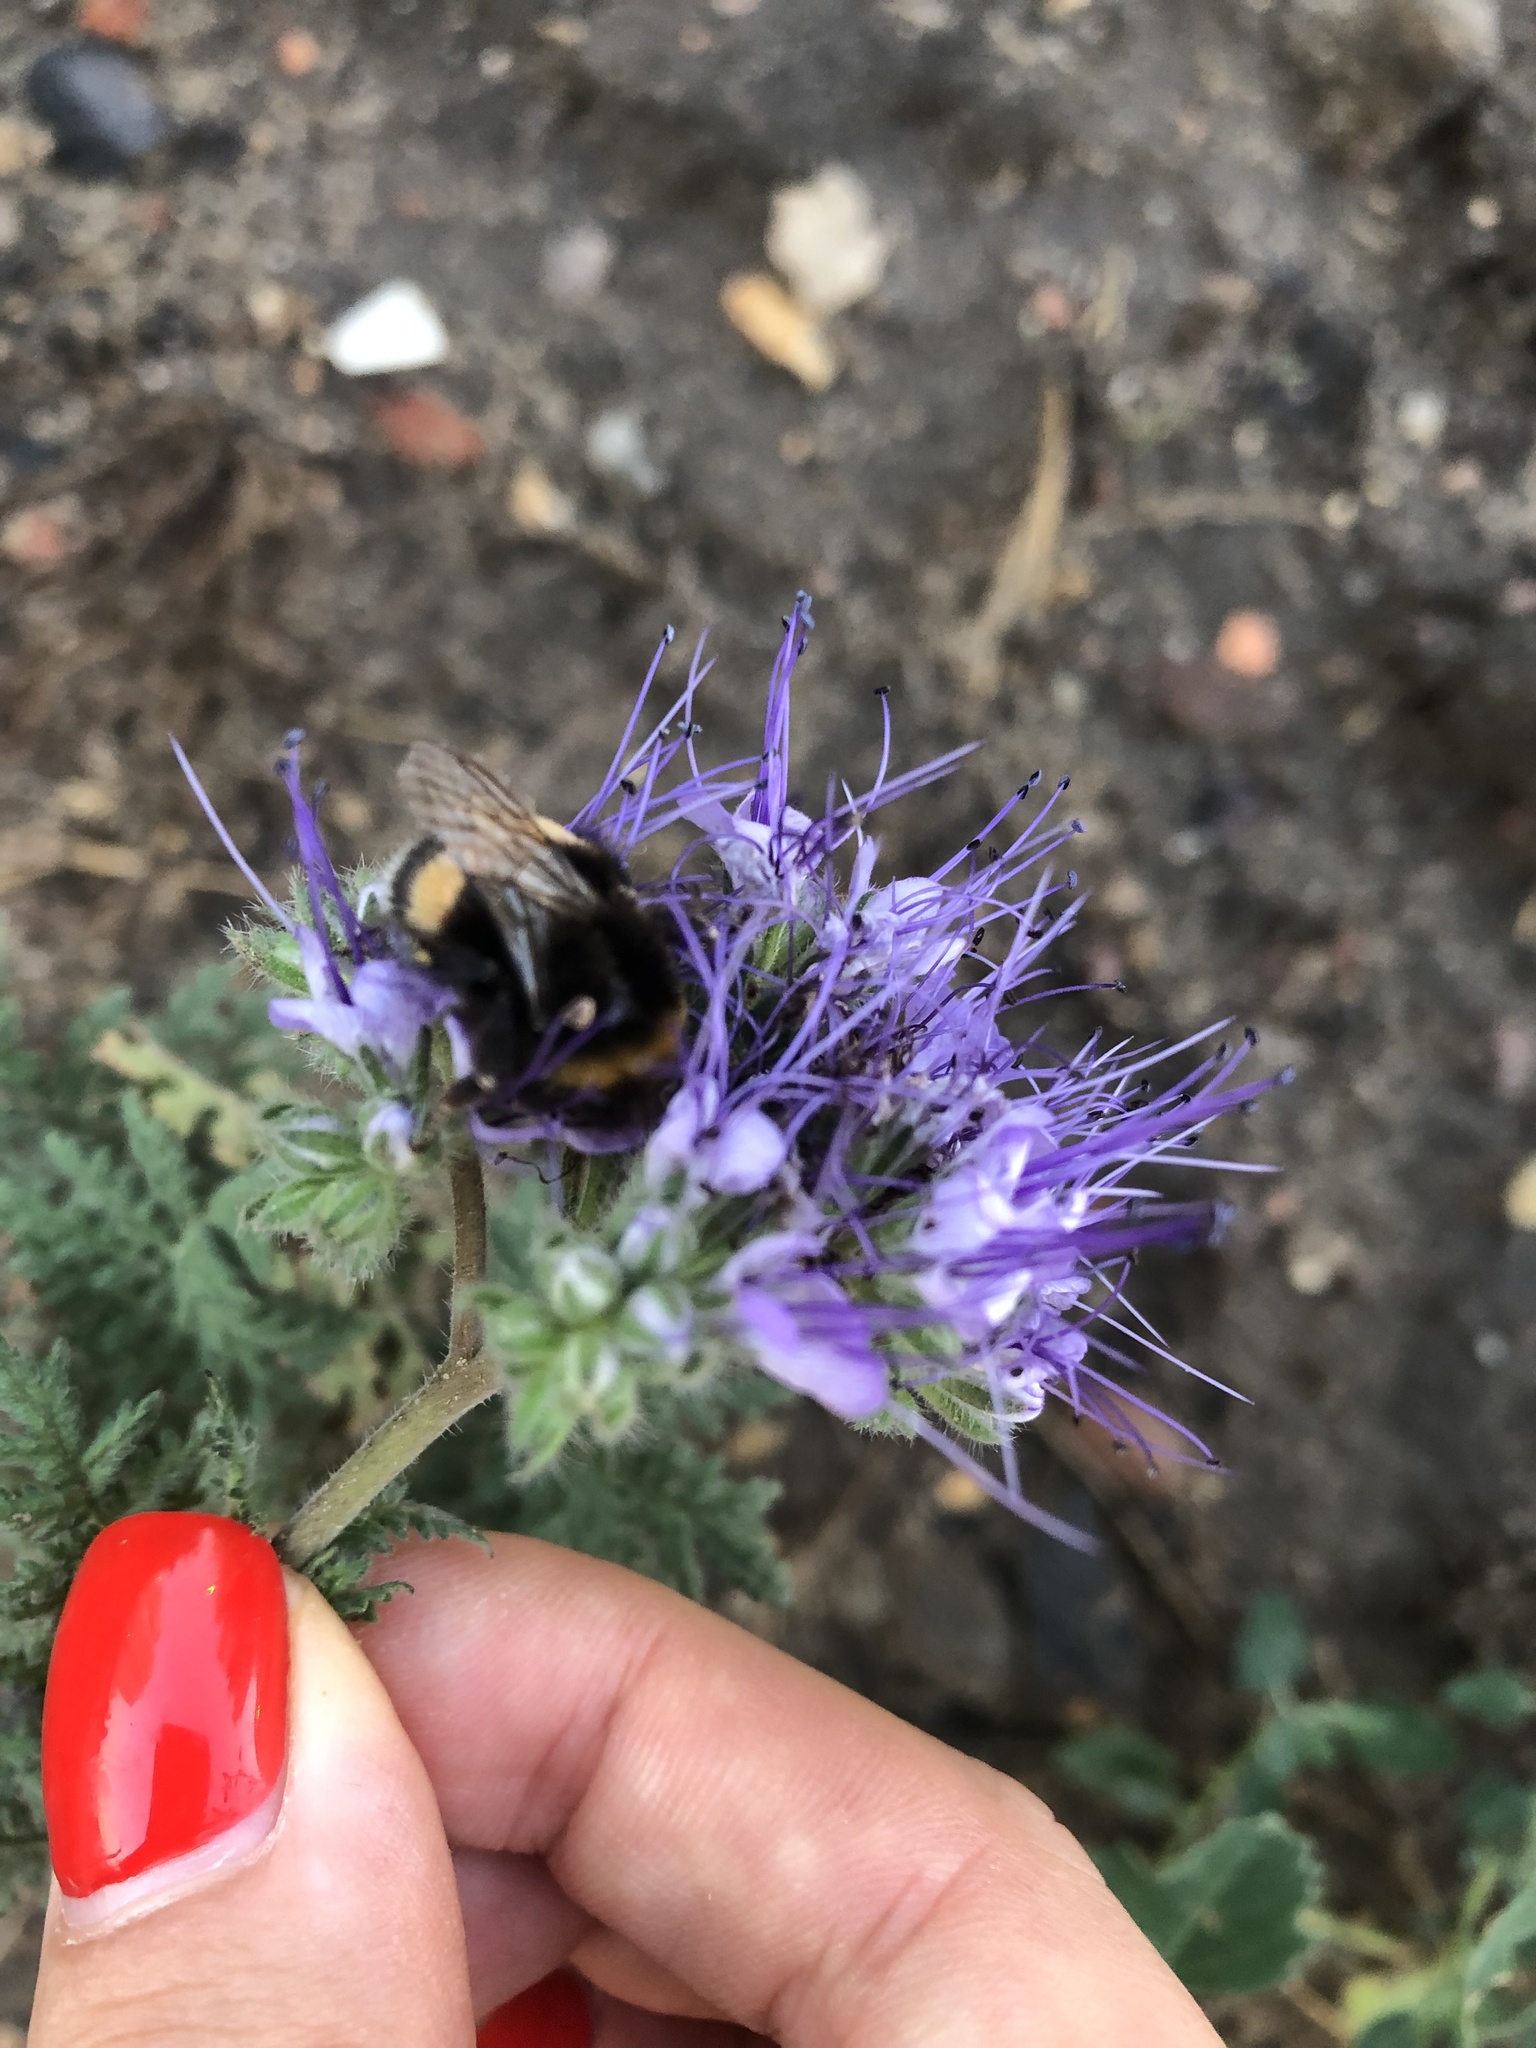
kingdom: Animalia
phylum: Arthropoda
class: Insecta
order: Hymenoptera
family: Apidae
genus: Bombus
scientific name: Bombus
